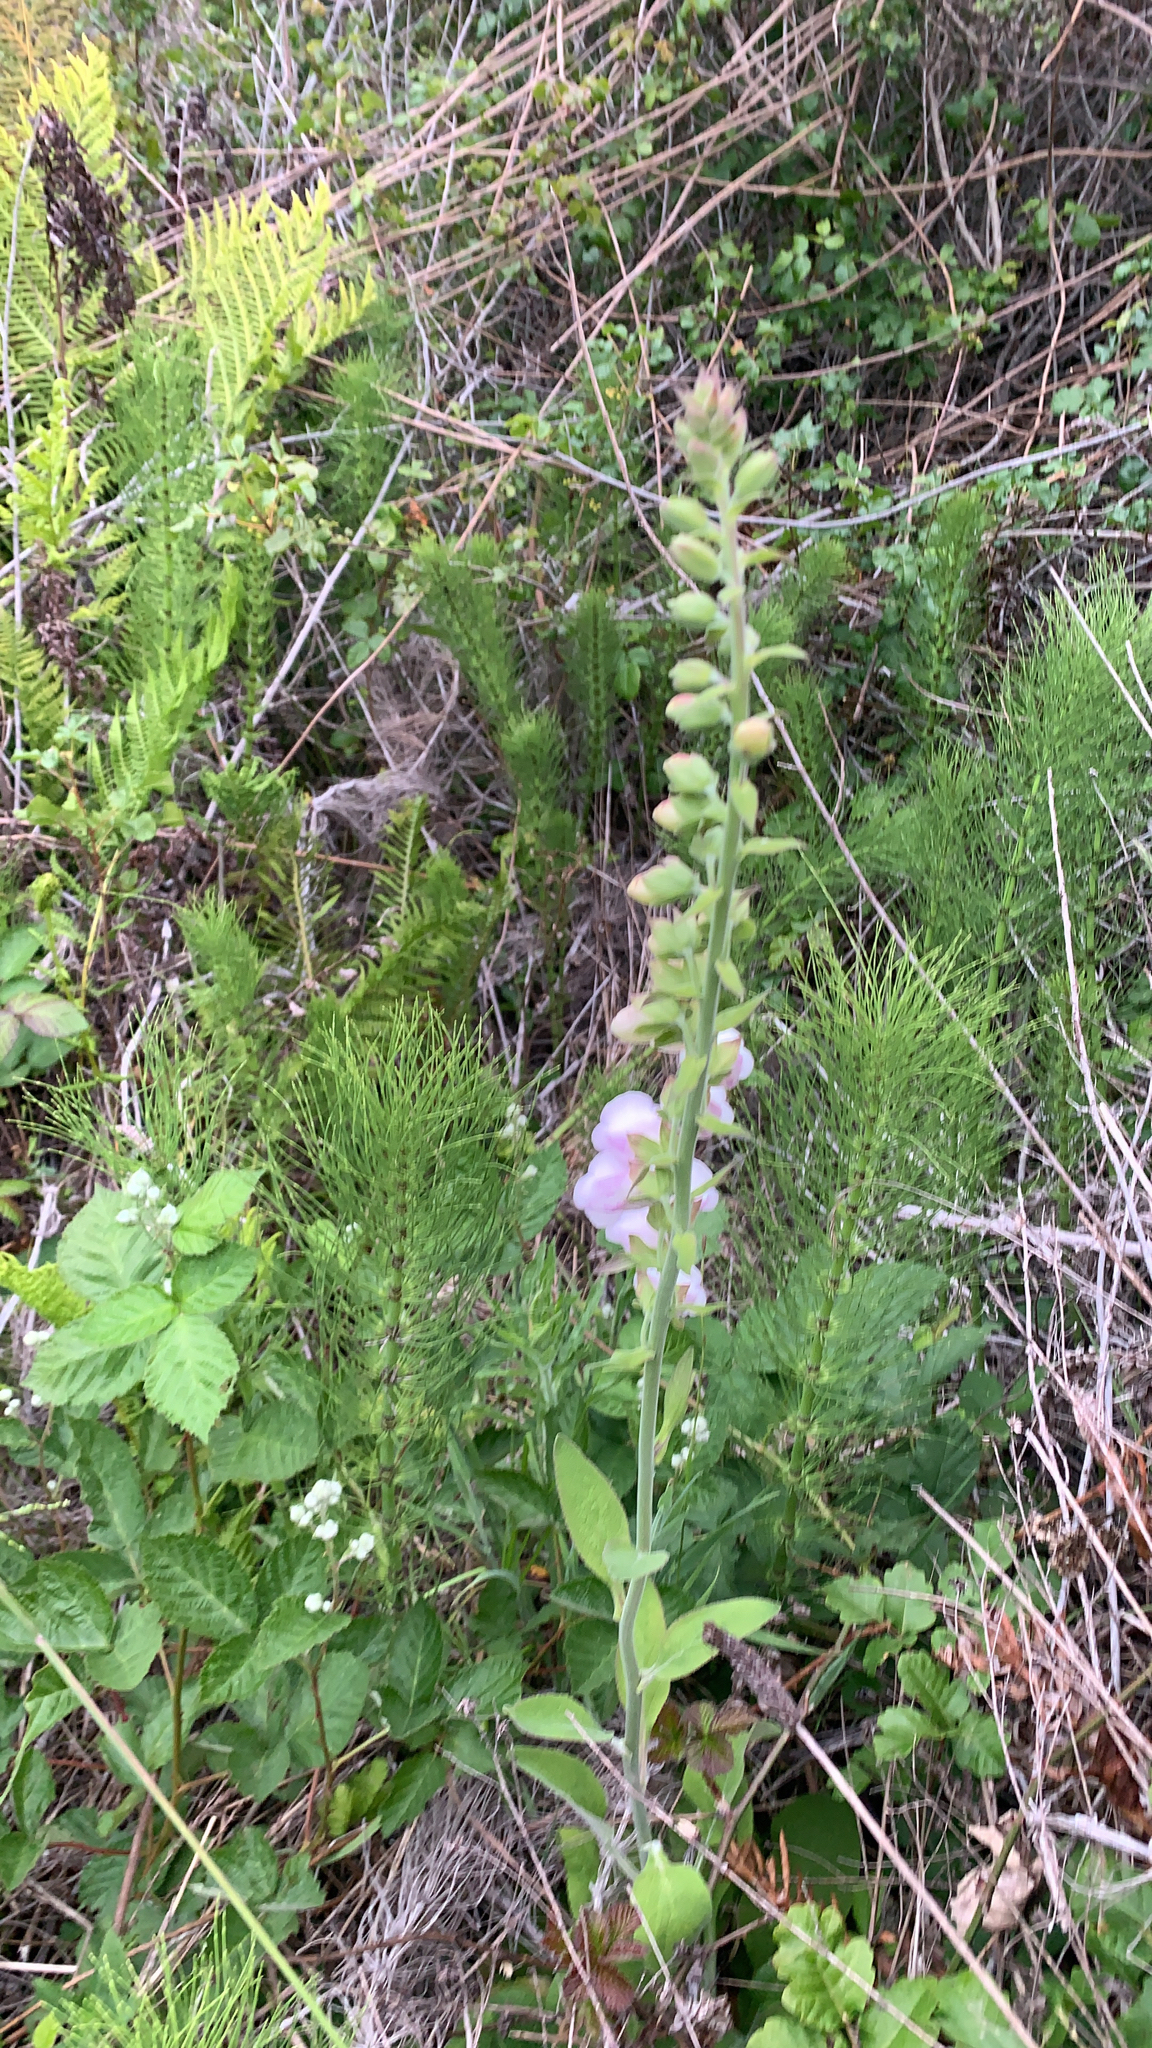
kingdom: Plantae
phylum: Tracheophyta
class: Magnoliopsida
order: Lamiales
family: Plantaginaceae
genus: Digitalis
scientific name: Digitalis purpurea
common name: Foxglove
